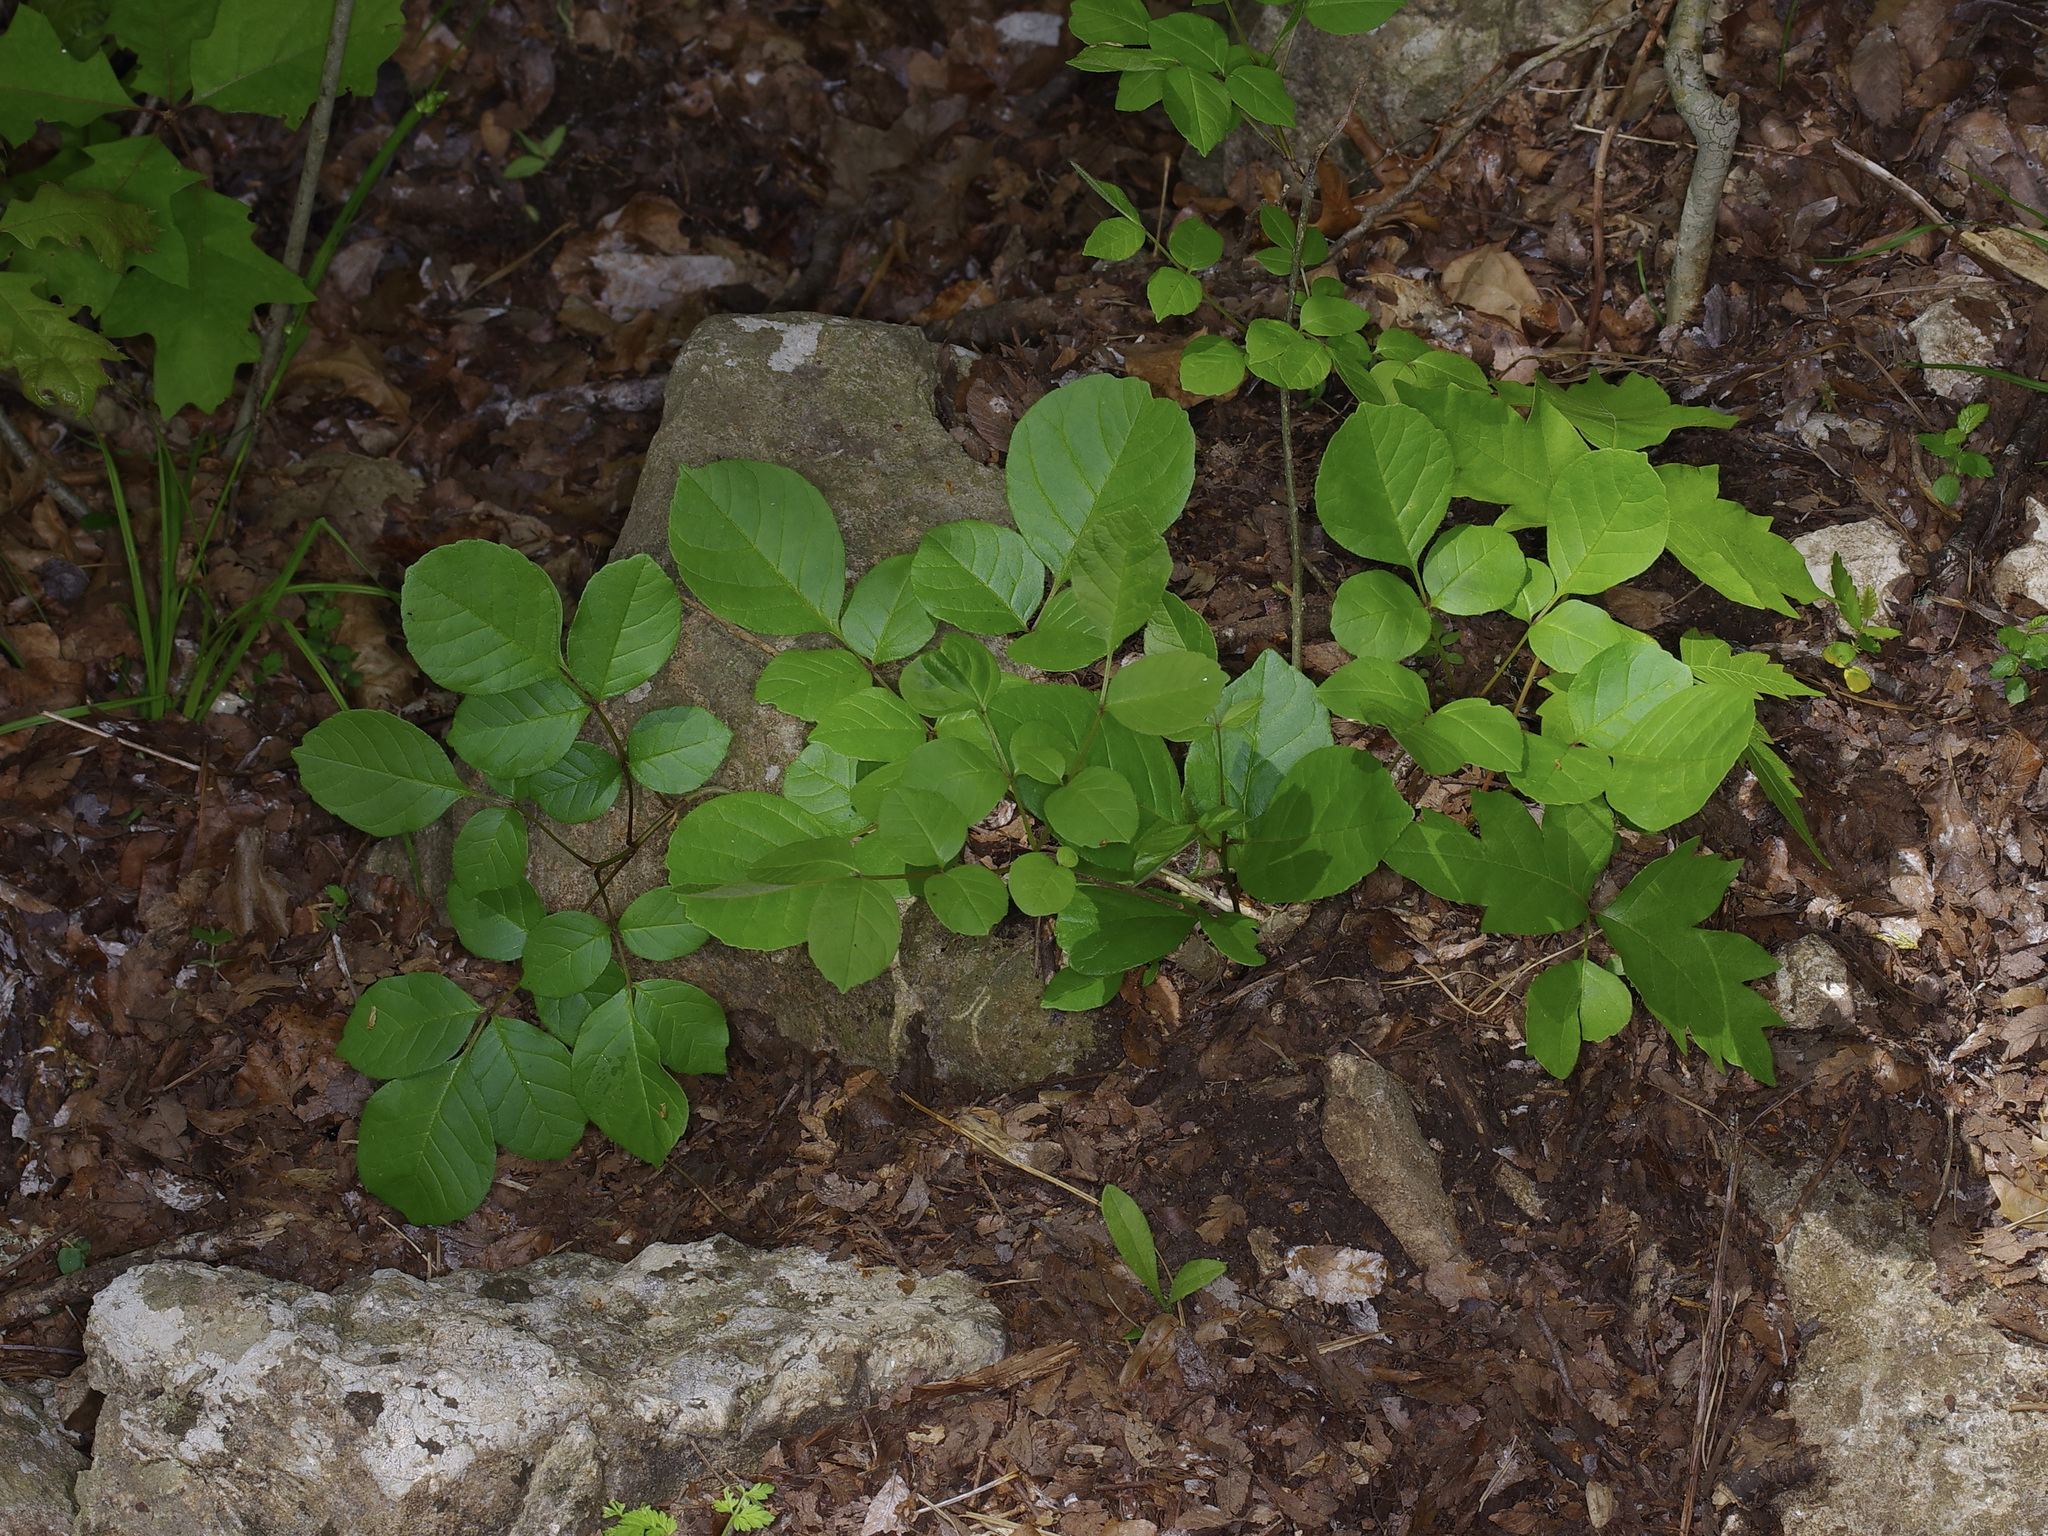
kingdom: Plantae
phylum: Tracheophyta
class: Magnoliopsida
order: Lamiales
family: Oleaceae
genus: Fraxinus
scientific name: Fraxinus albicans
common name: Texas ash
